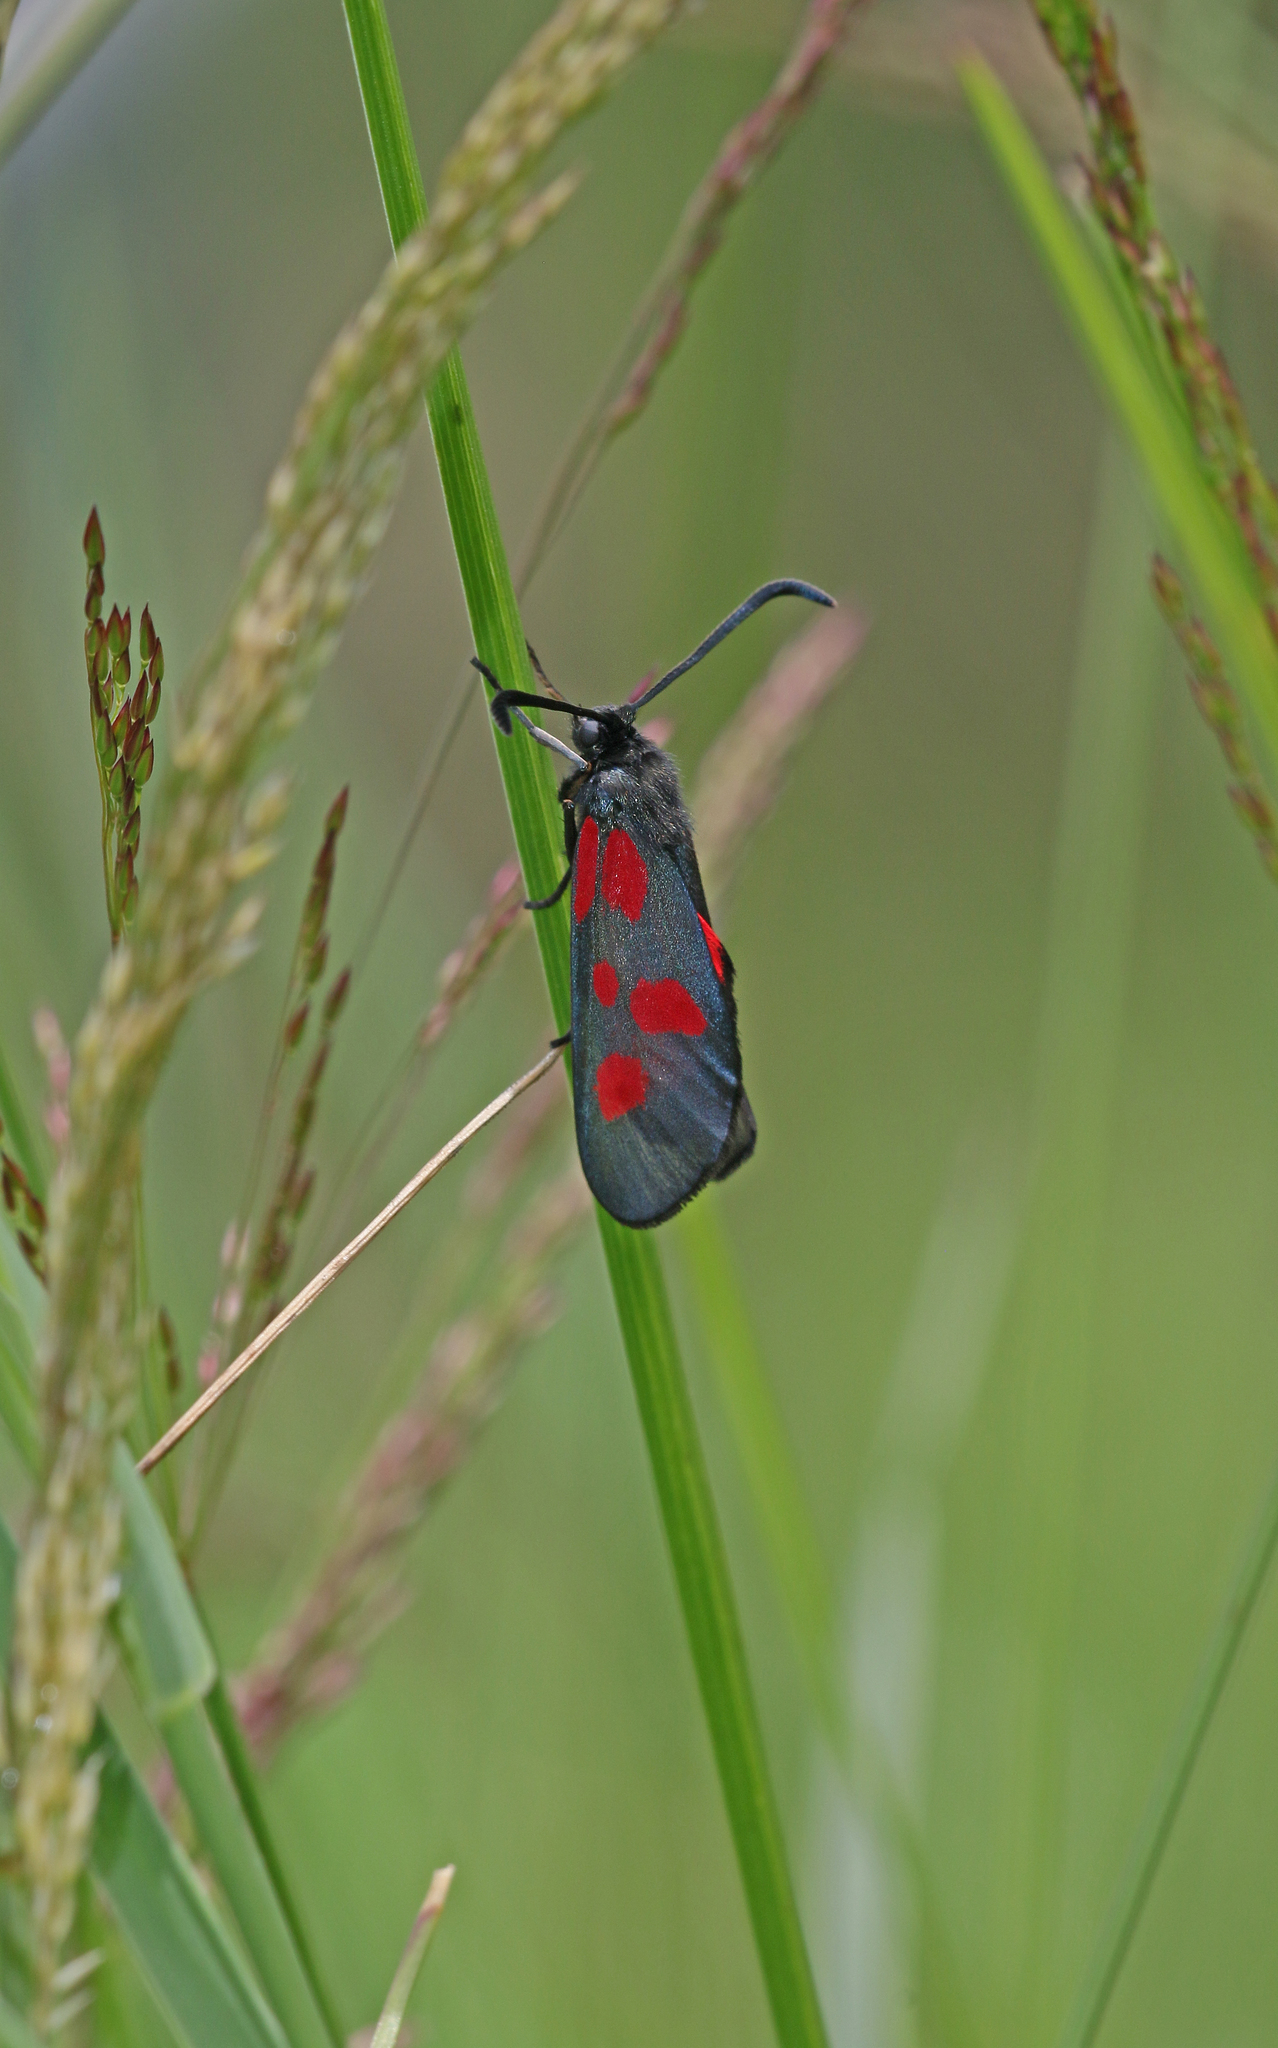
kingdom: Animalia
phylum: Arthropoda
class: Insecta
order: Lepidoptera
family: Zygaenidae
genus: Zygaena
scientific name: Zygaena viciae
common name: New forest burnet
